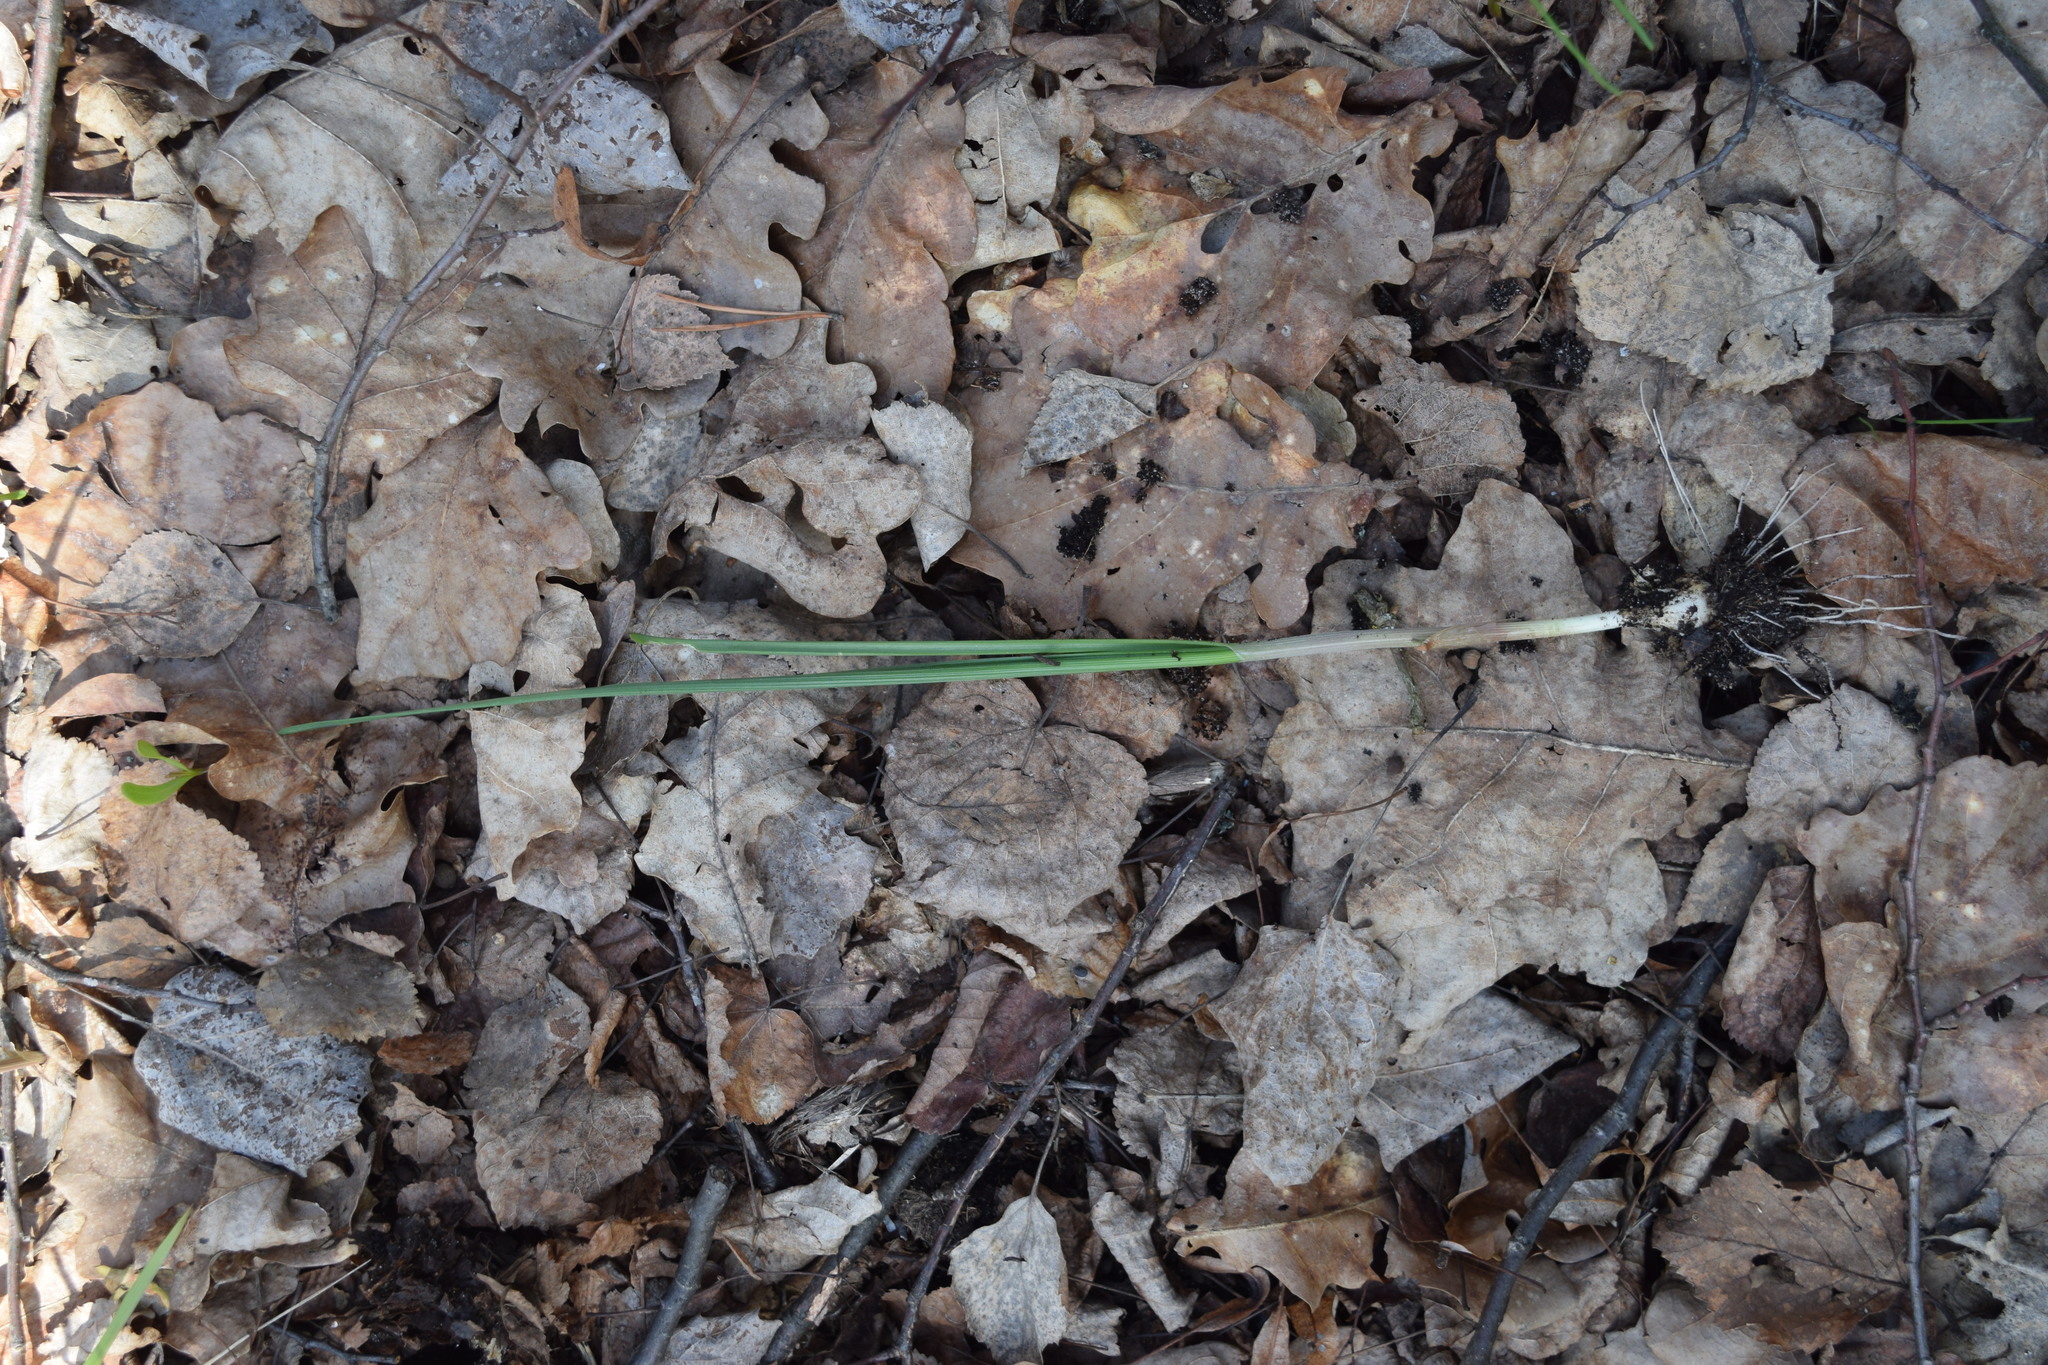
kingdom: Plantae
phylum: Tracheophyta
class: Liliopsida
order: Asparagales
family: Amaryllidaceae
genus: Allium
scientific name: Allium oleraceum
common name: Field garlic
